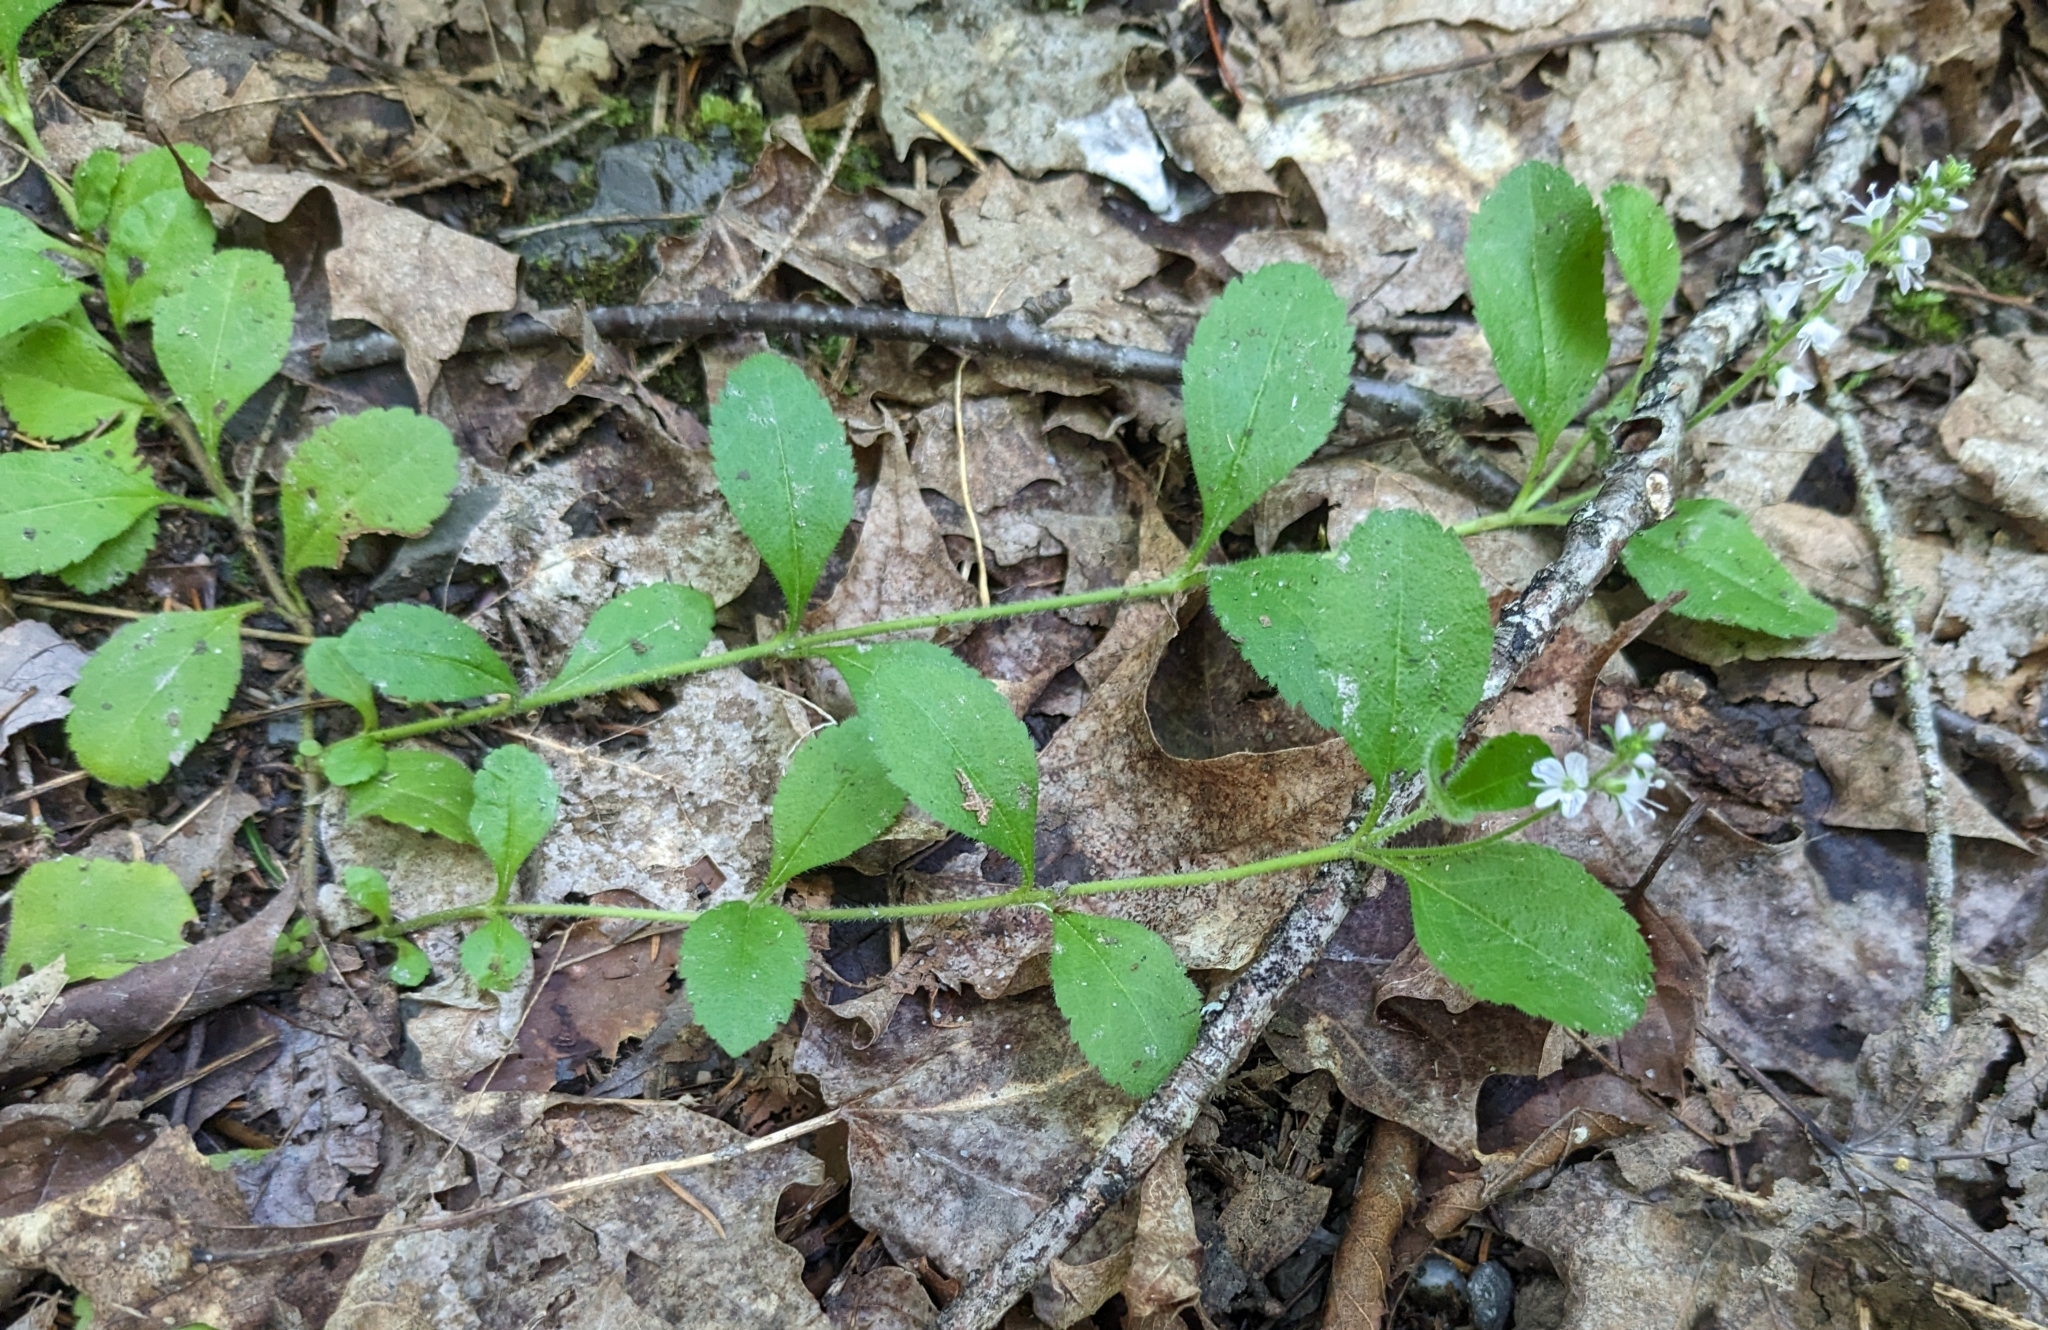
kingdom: Plantae
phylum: Tracheophyta
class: Magnoliopsida
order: Lamiales
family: Plantaginaceae
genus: Veronica
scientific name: Veronica officinalis
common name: Common speedwell
